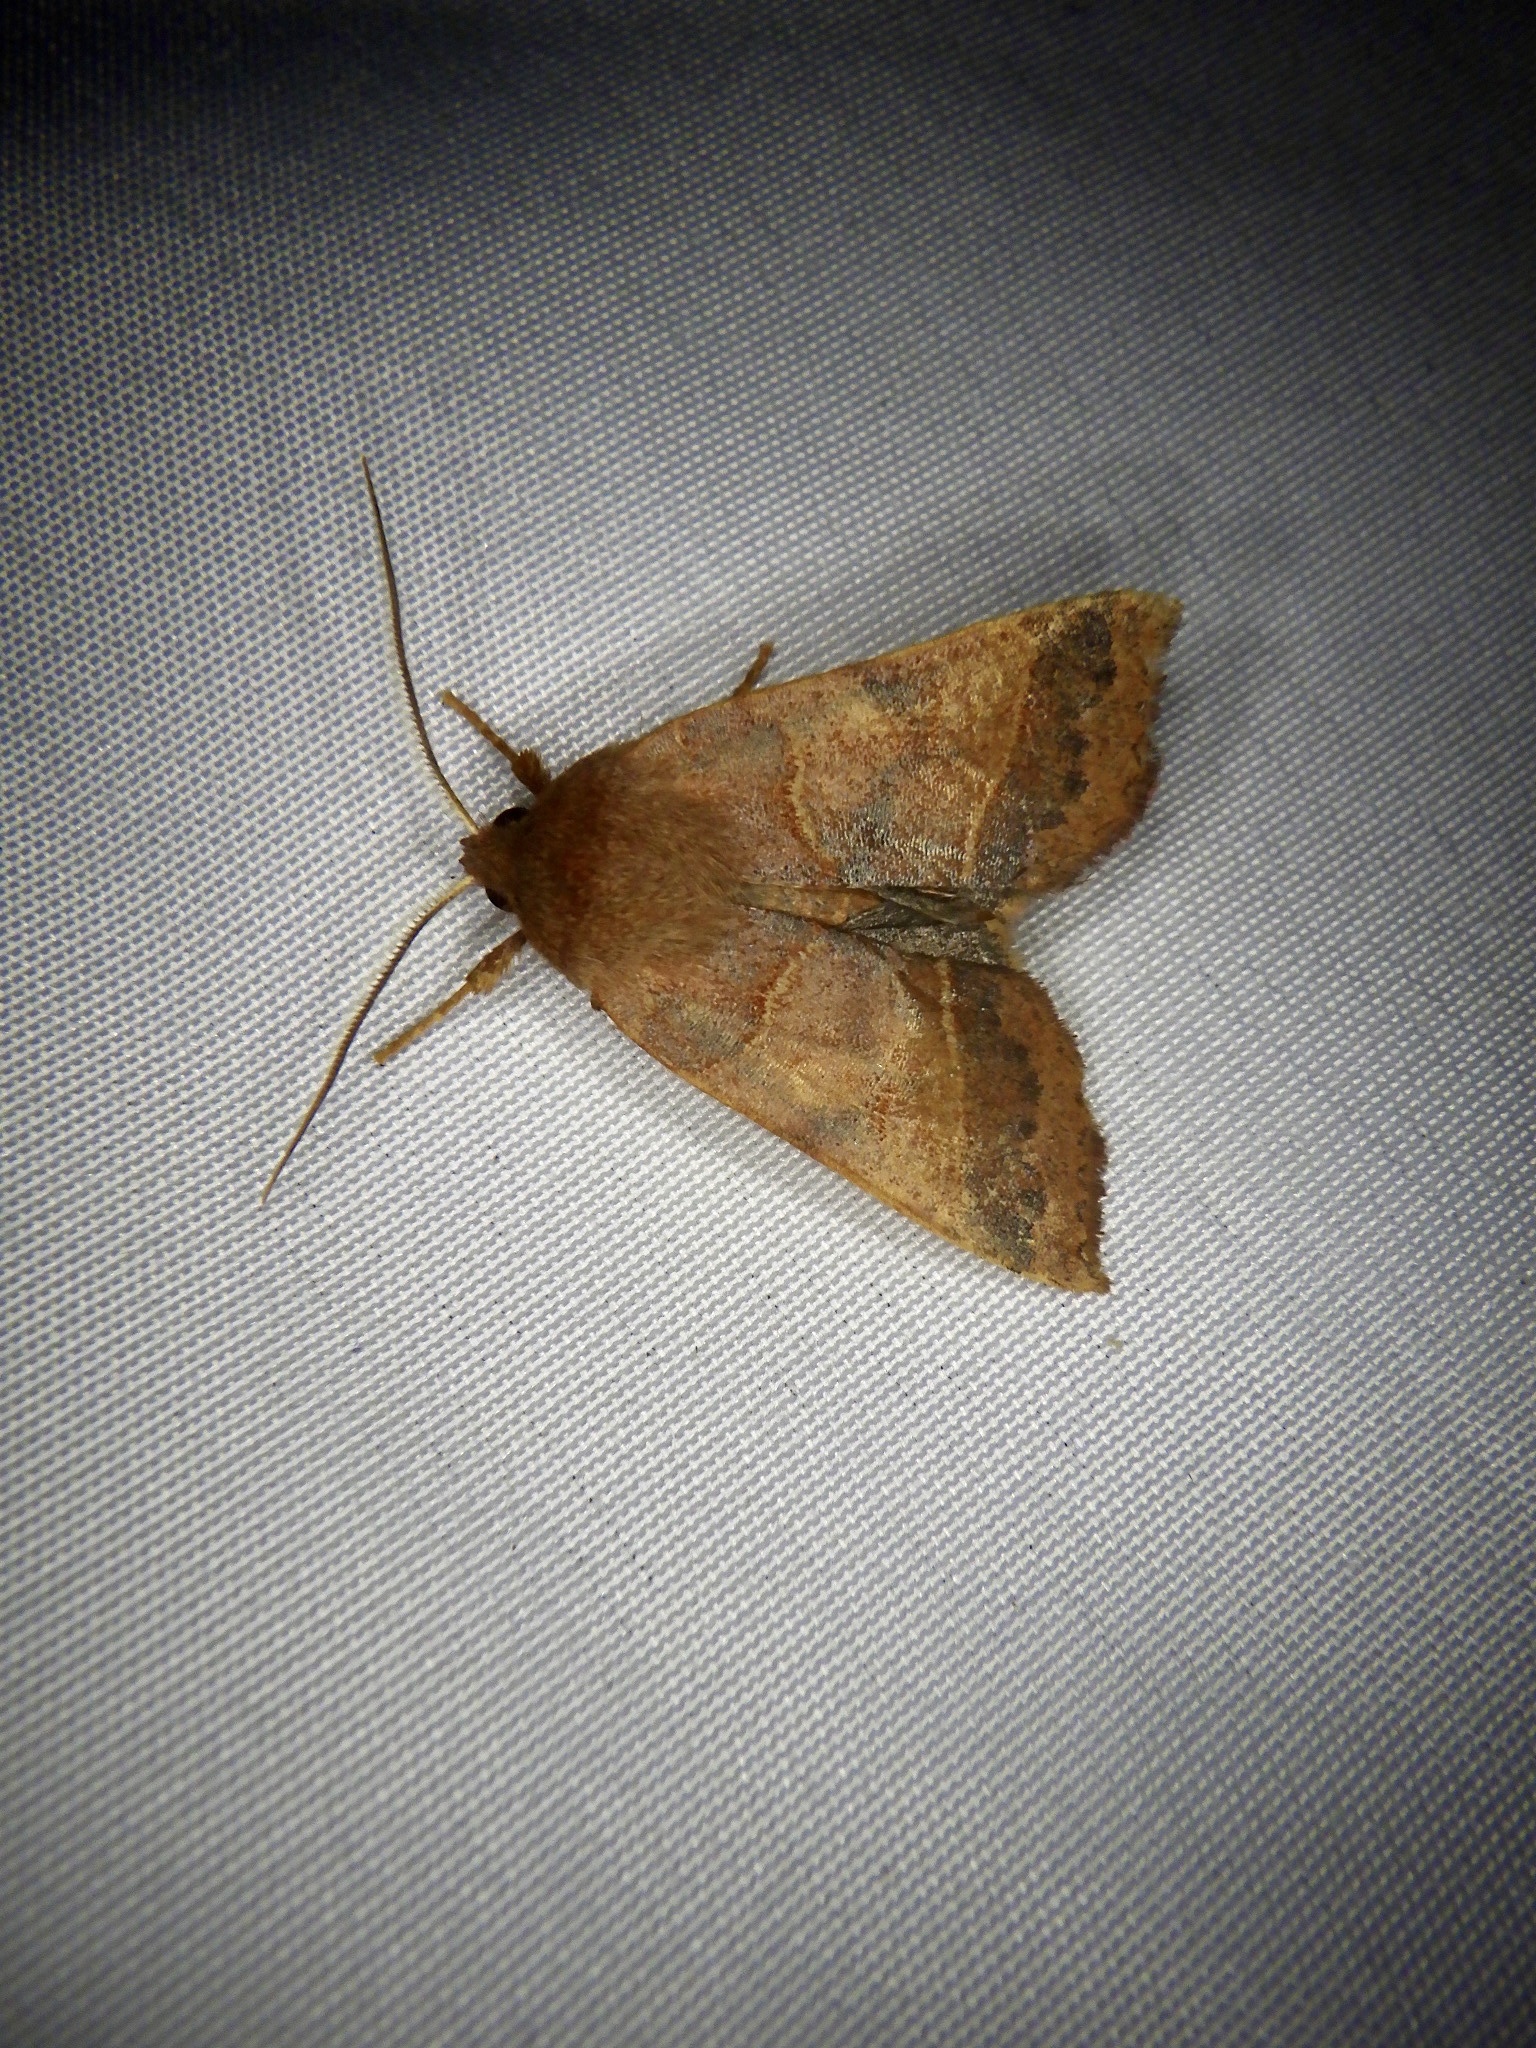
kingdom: Animalia
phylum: Arthropoda
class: Insecta
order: Lepidoptera
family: Noctuidae
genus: Telorta
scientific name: Telorta edentata
